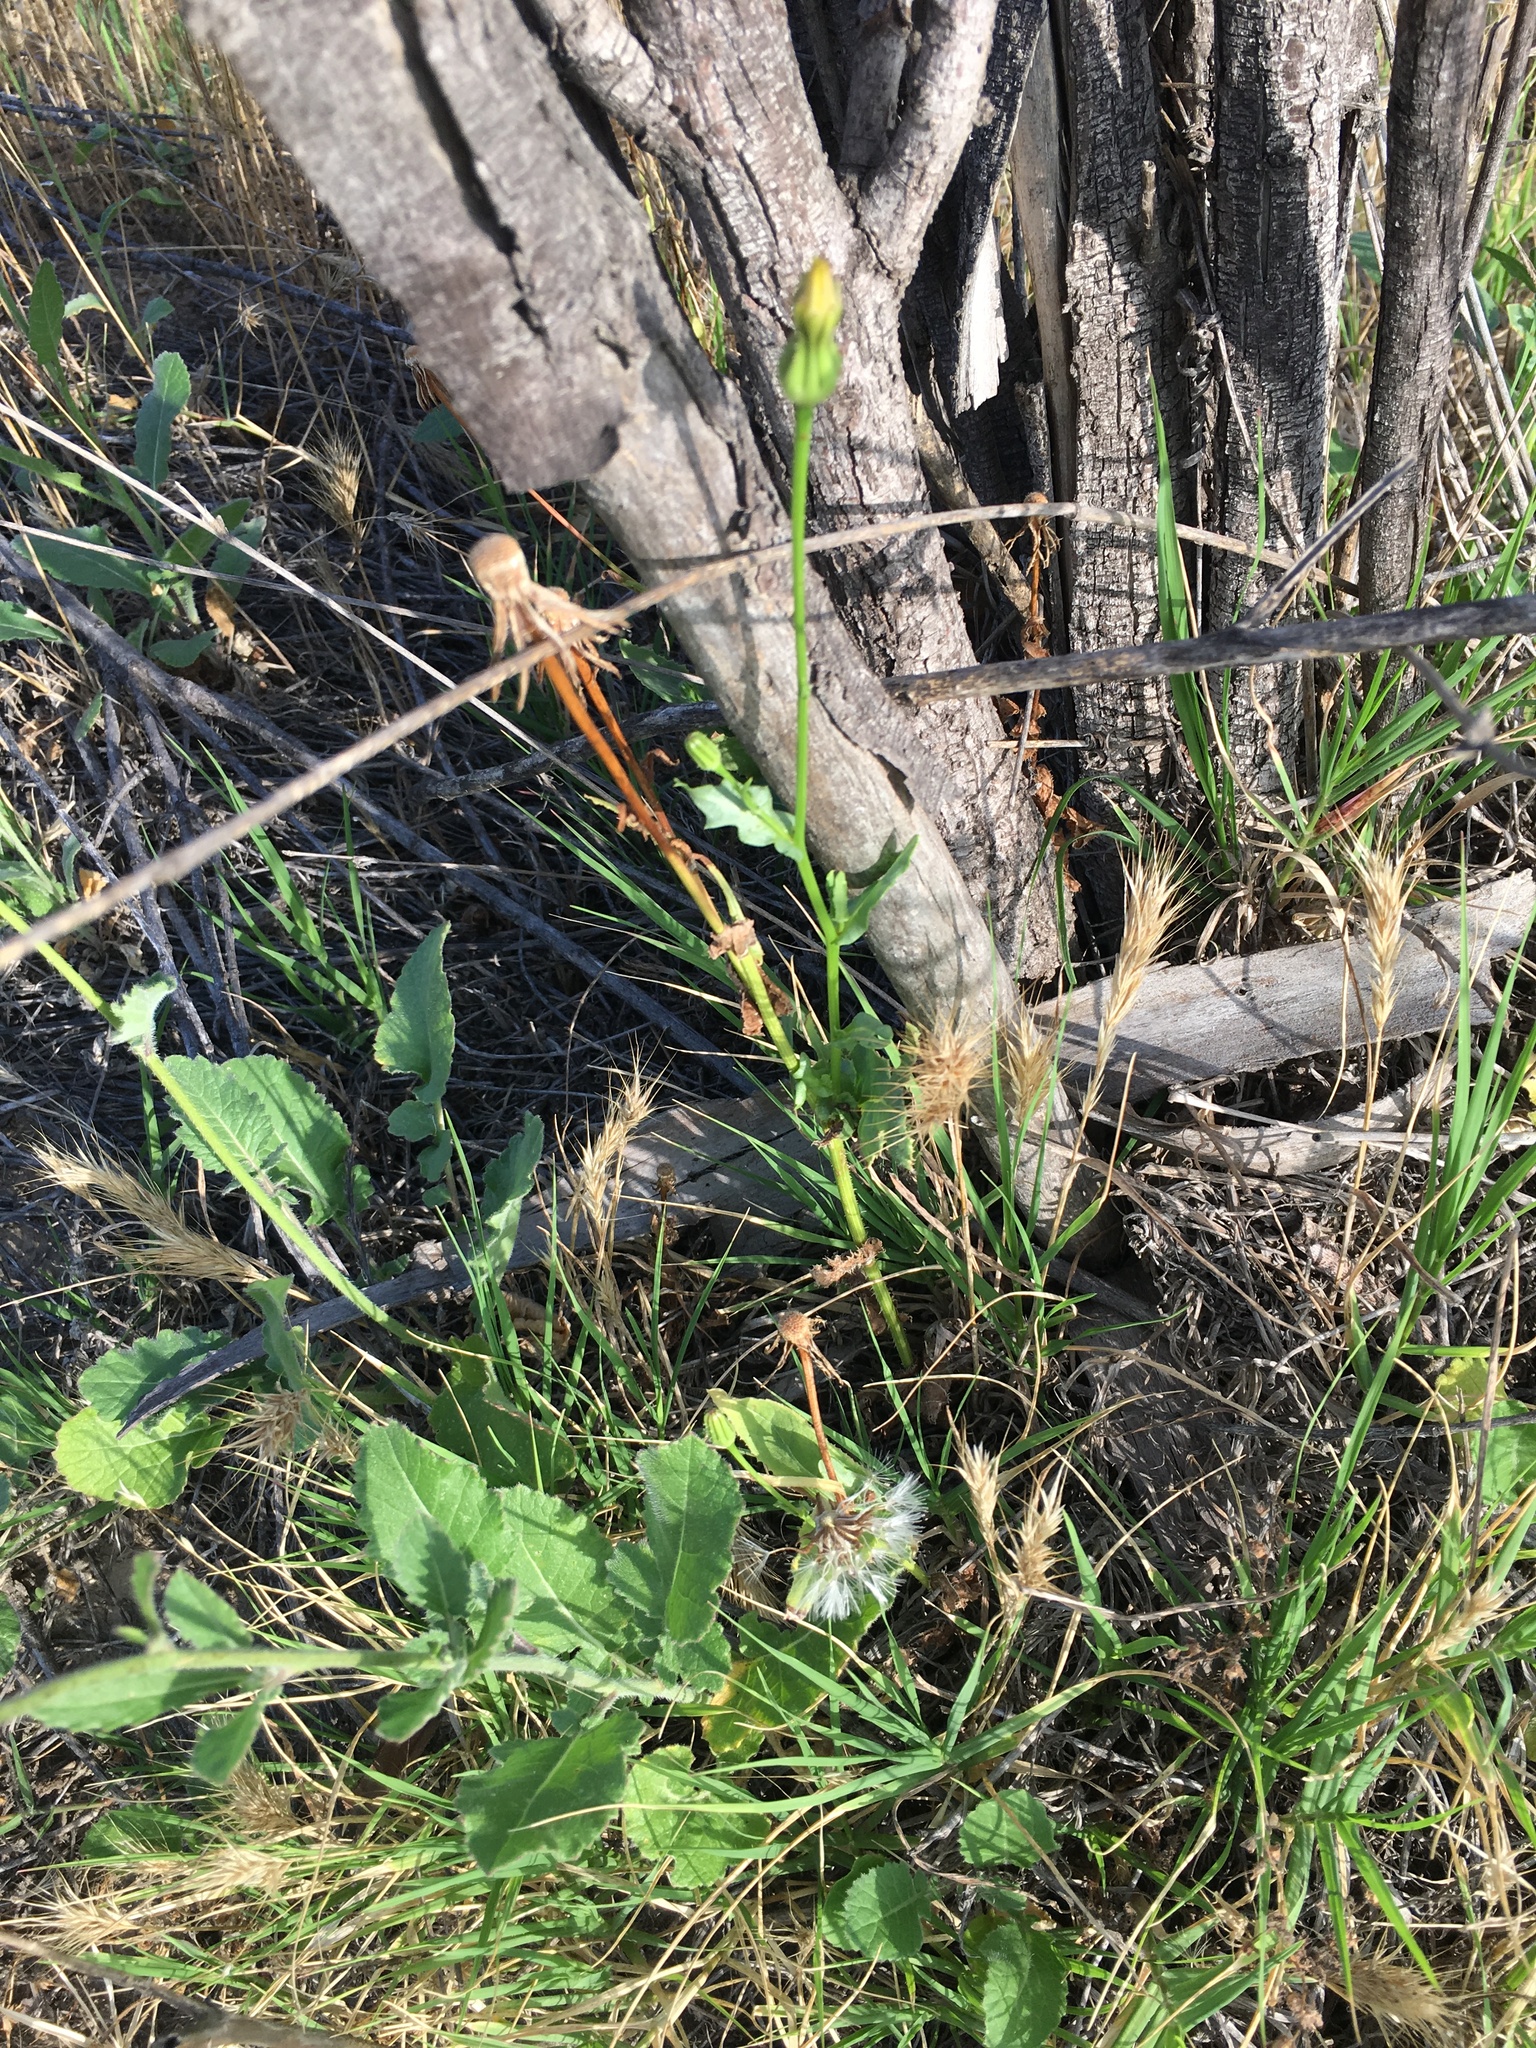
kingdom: Plantae
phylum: Tracheophyta
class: Magnoliopsida
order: Asterales
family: Asteraceae
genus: Urospermum
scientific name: Urospermum picroides
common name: False hawkbit
